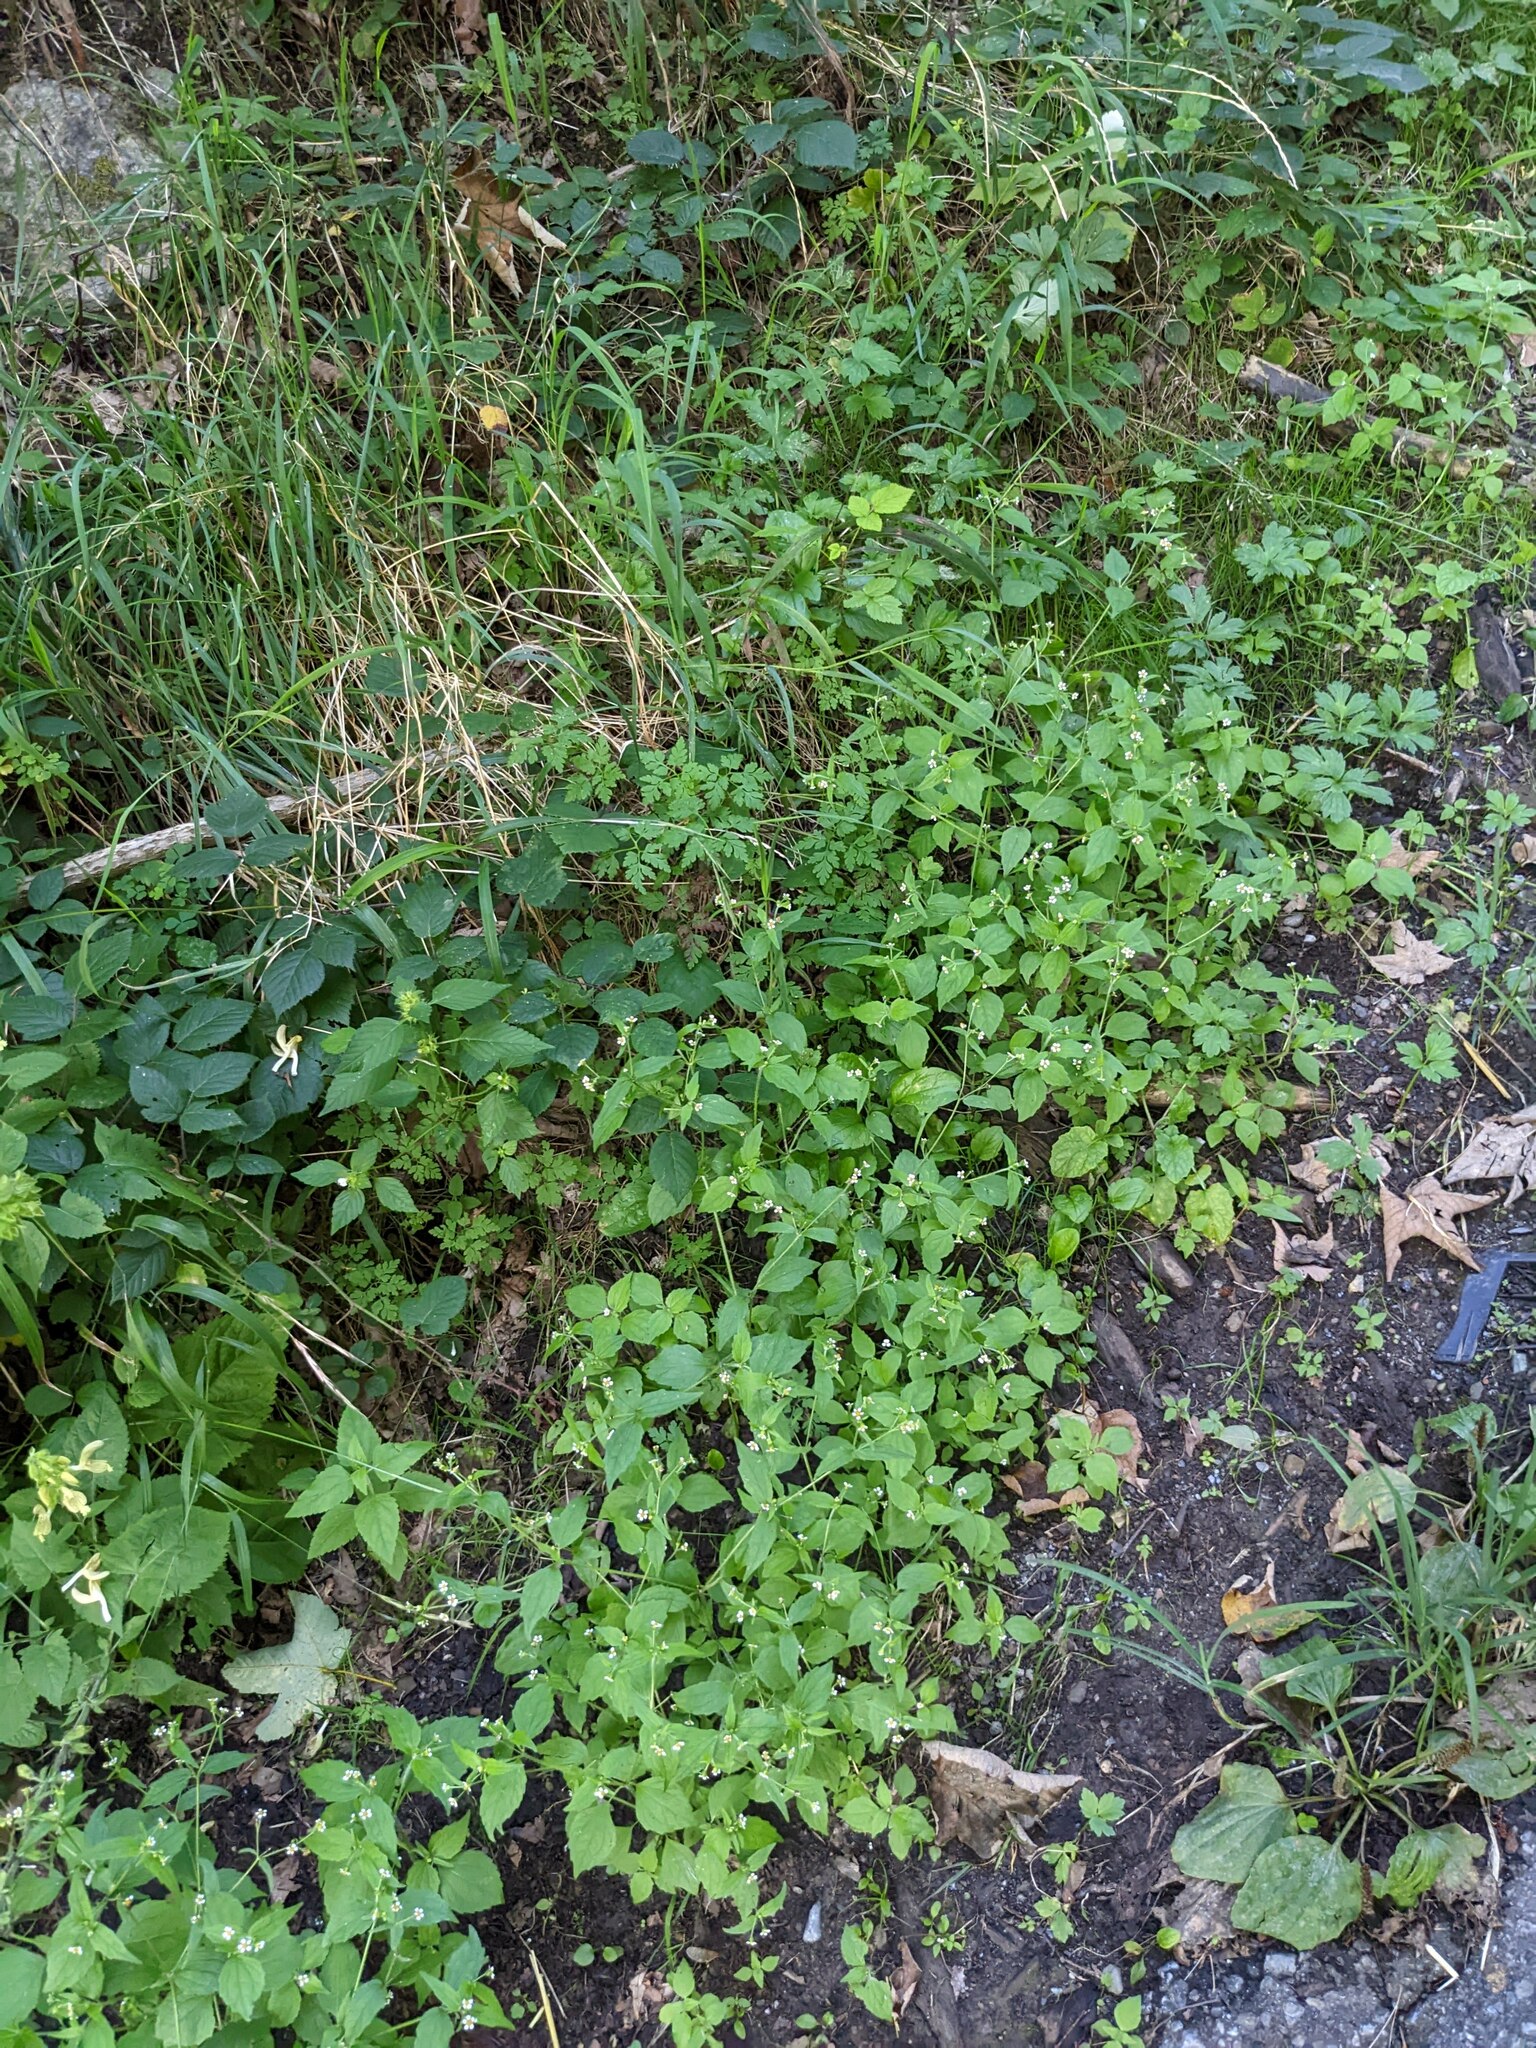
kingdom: Plantae
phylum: Tracheophyta
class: Magnoliopsida
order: Asterales
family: Asteraceae
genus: Galinsoga
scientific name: Galinsoga quadriradiata
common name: Shaggy soldier
